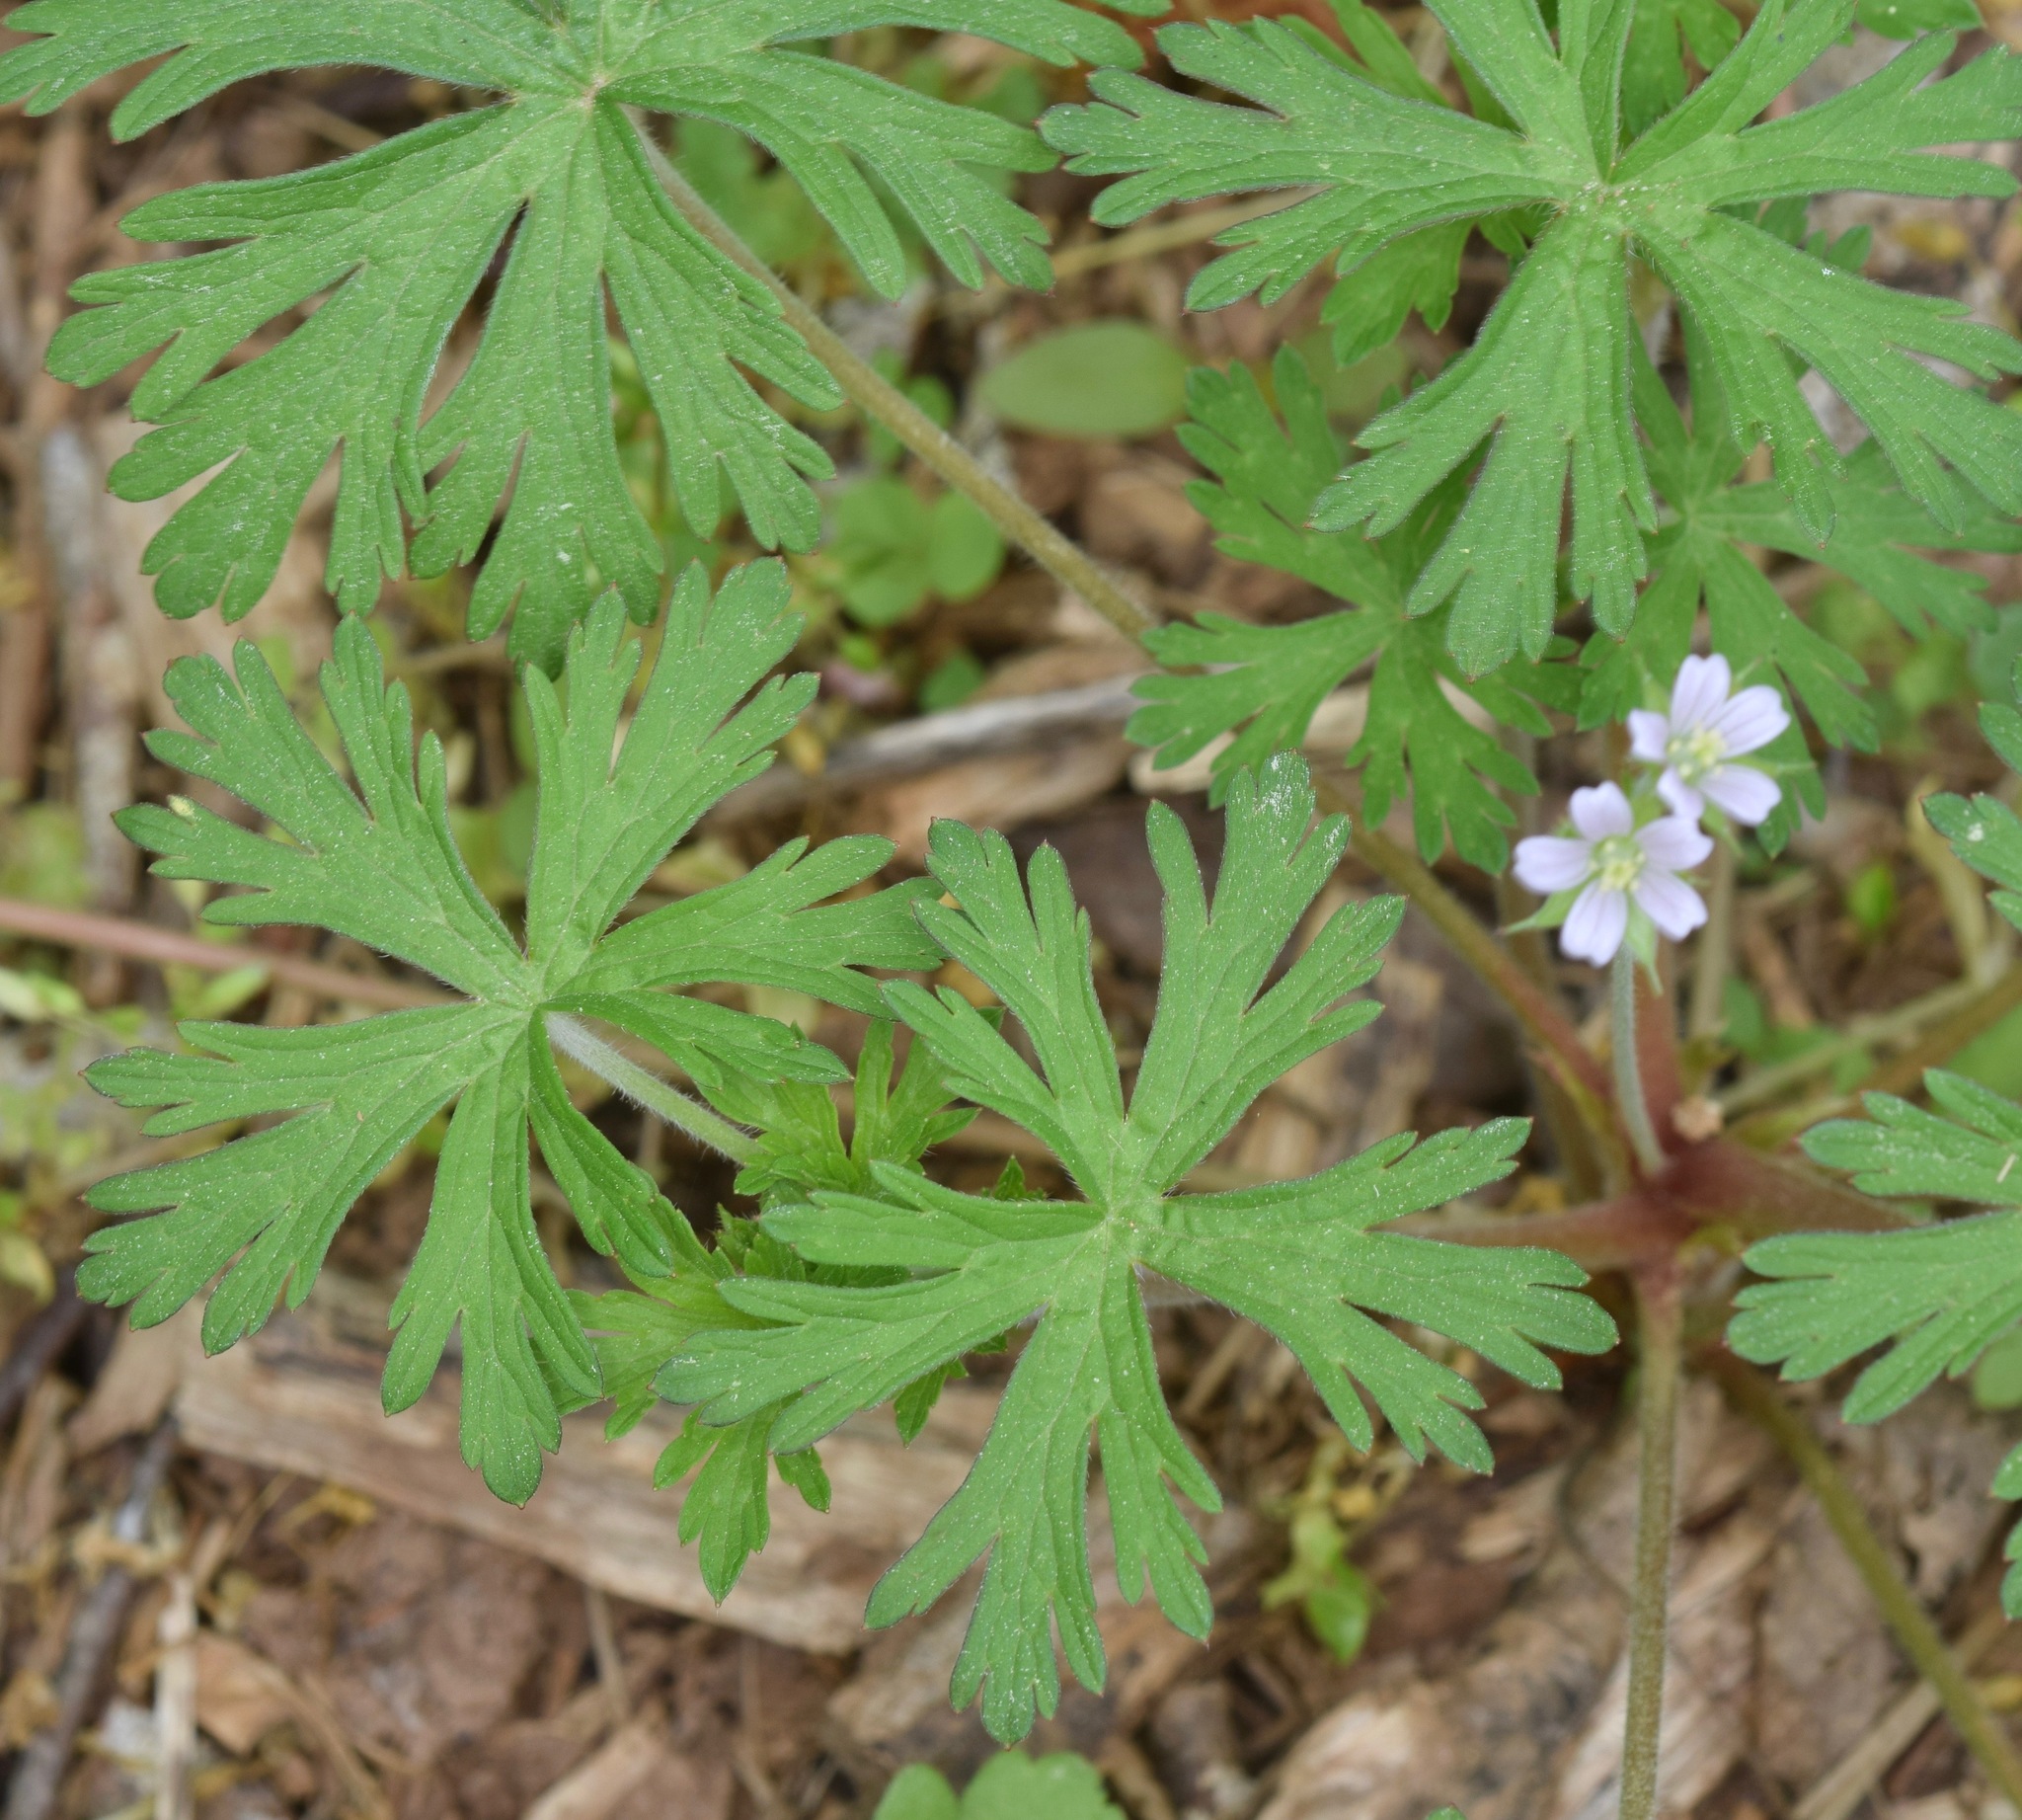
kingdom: Plantae
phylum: Tracheophyta
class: Magnoliopsida
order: Geraniales
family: Geraniaceae
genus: Geranium
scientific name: Geranium carolinianum
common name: Carolina crane's-bill
